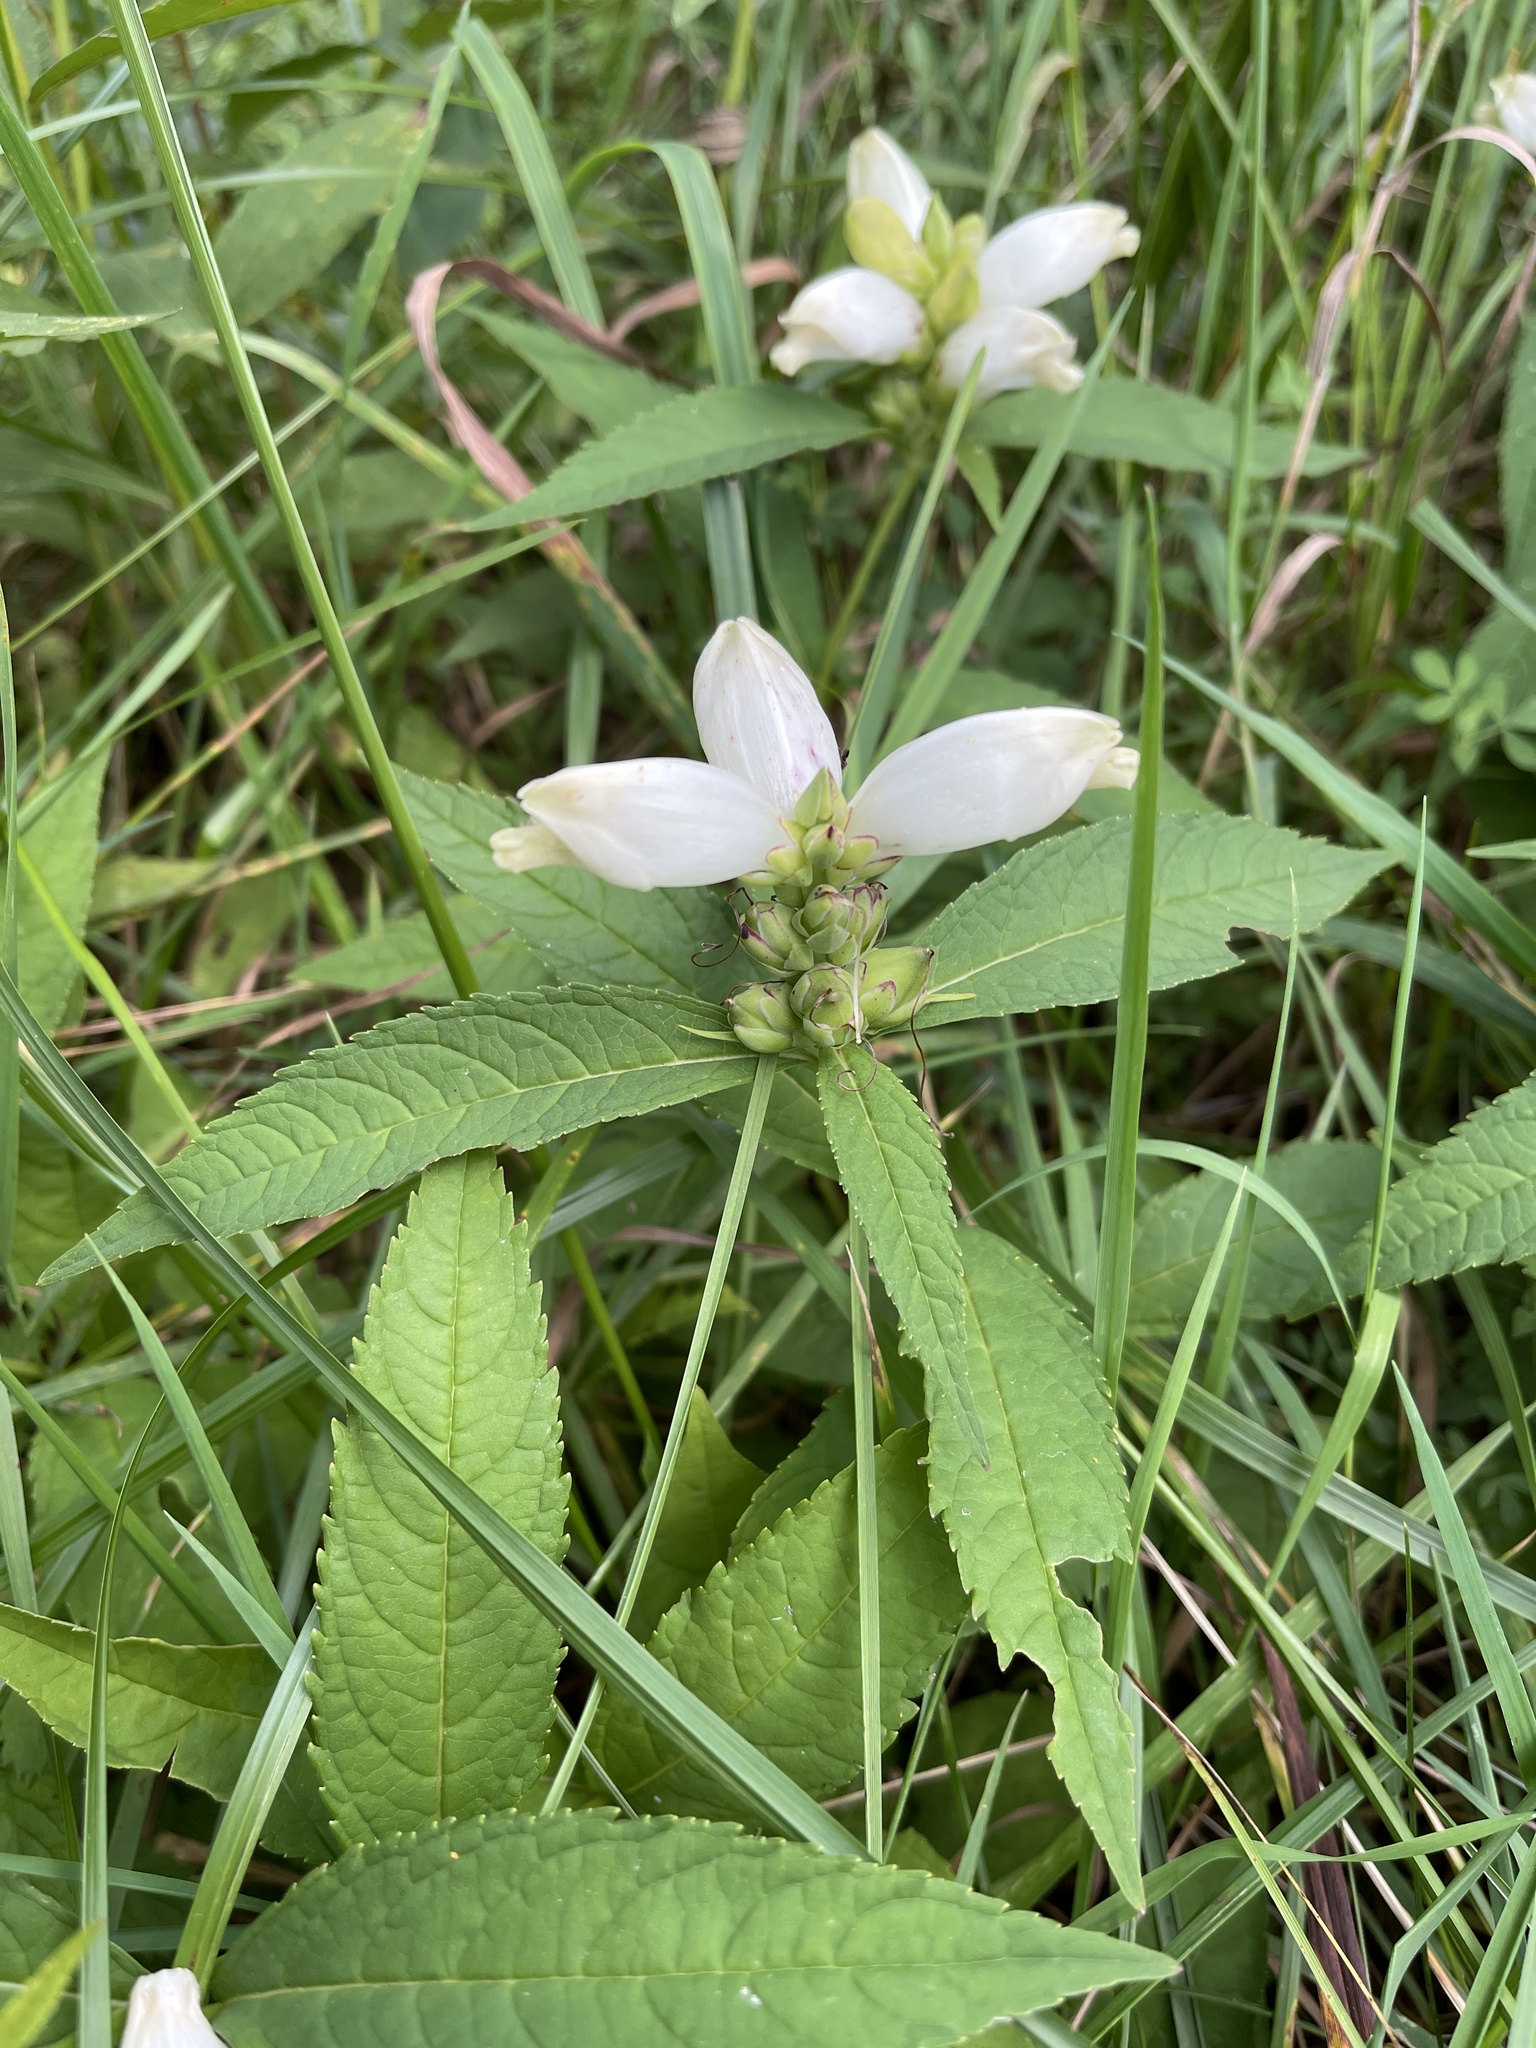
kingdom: Plantae
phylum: Tracheophyta
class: Magnoliopsida
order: Lamiales
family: Plantaginaceae
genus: Chelone
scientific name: Chelone glabra
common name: Snakehead
